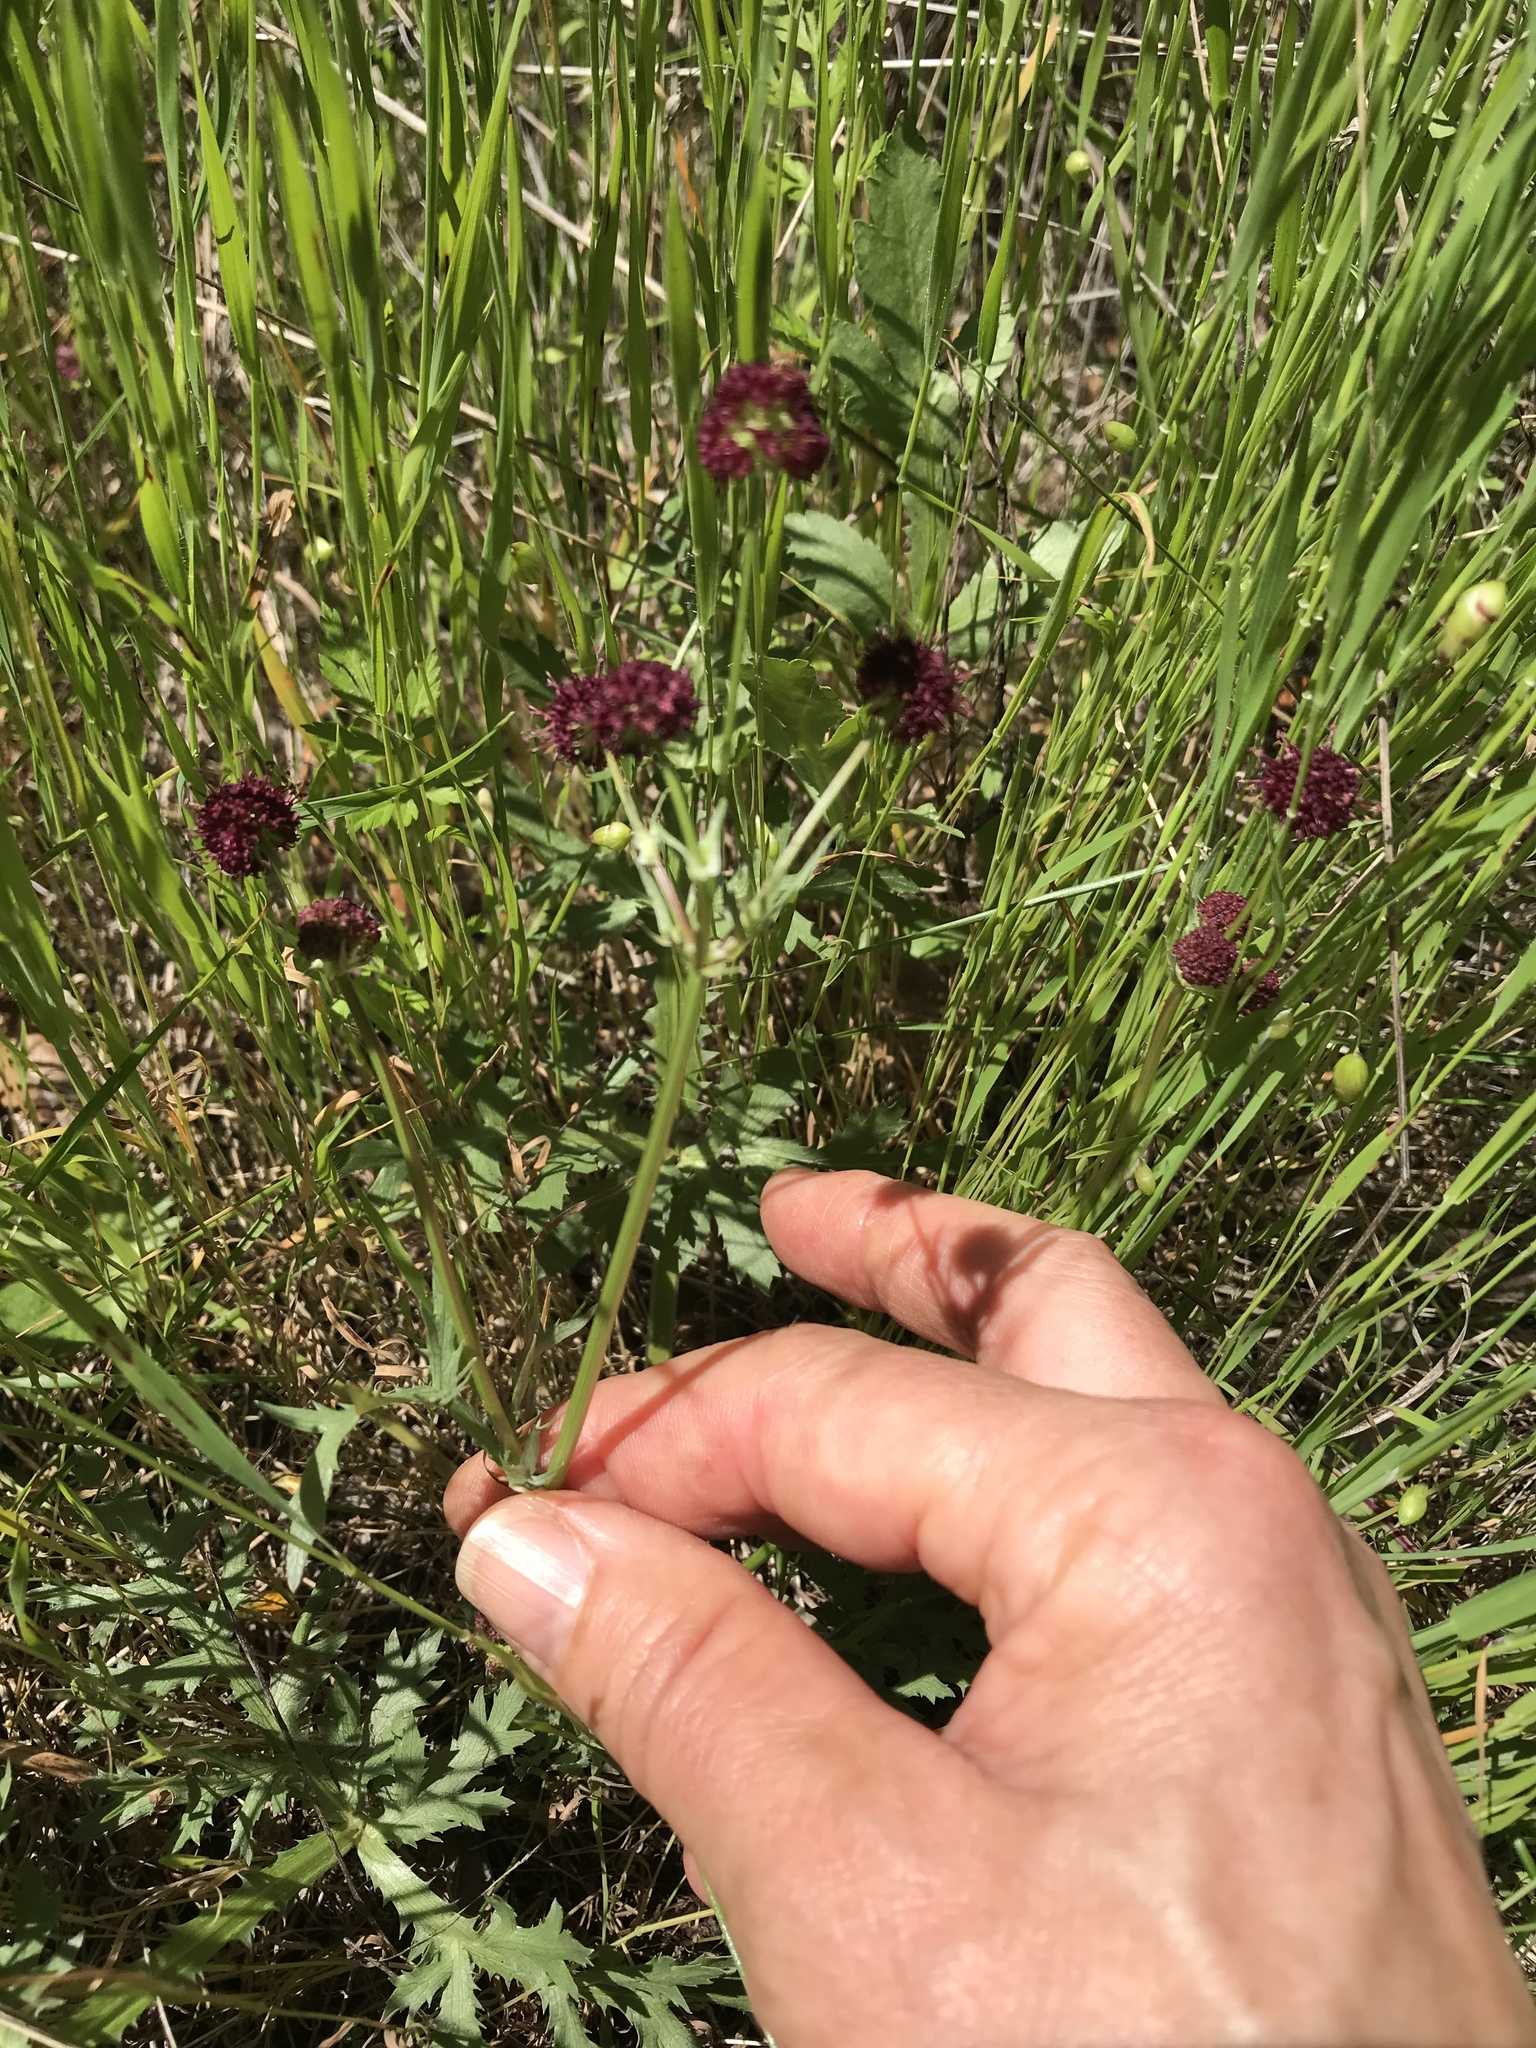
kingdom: Plantae
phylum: Tracheophyta
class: Magnoliopsida
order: Apiales
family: Apiaceae
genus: Sanicula
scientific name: Sanicula bipinnatifida
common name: Shoe-buttons
